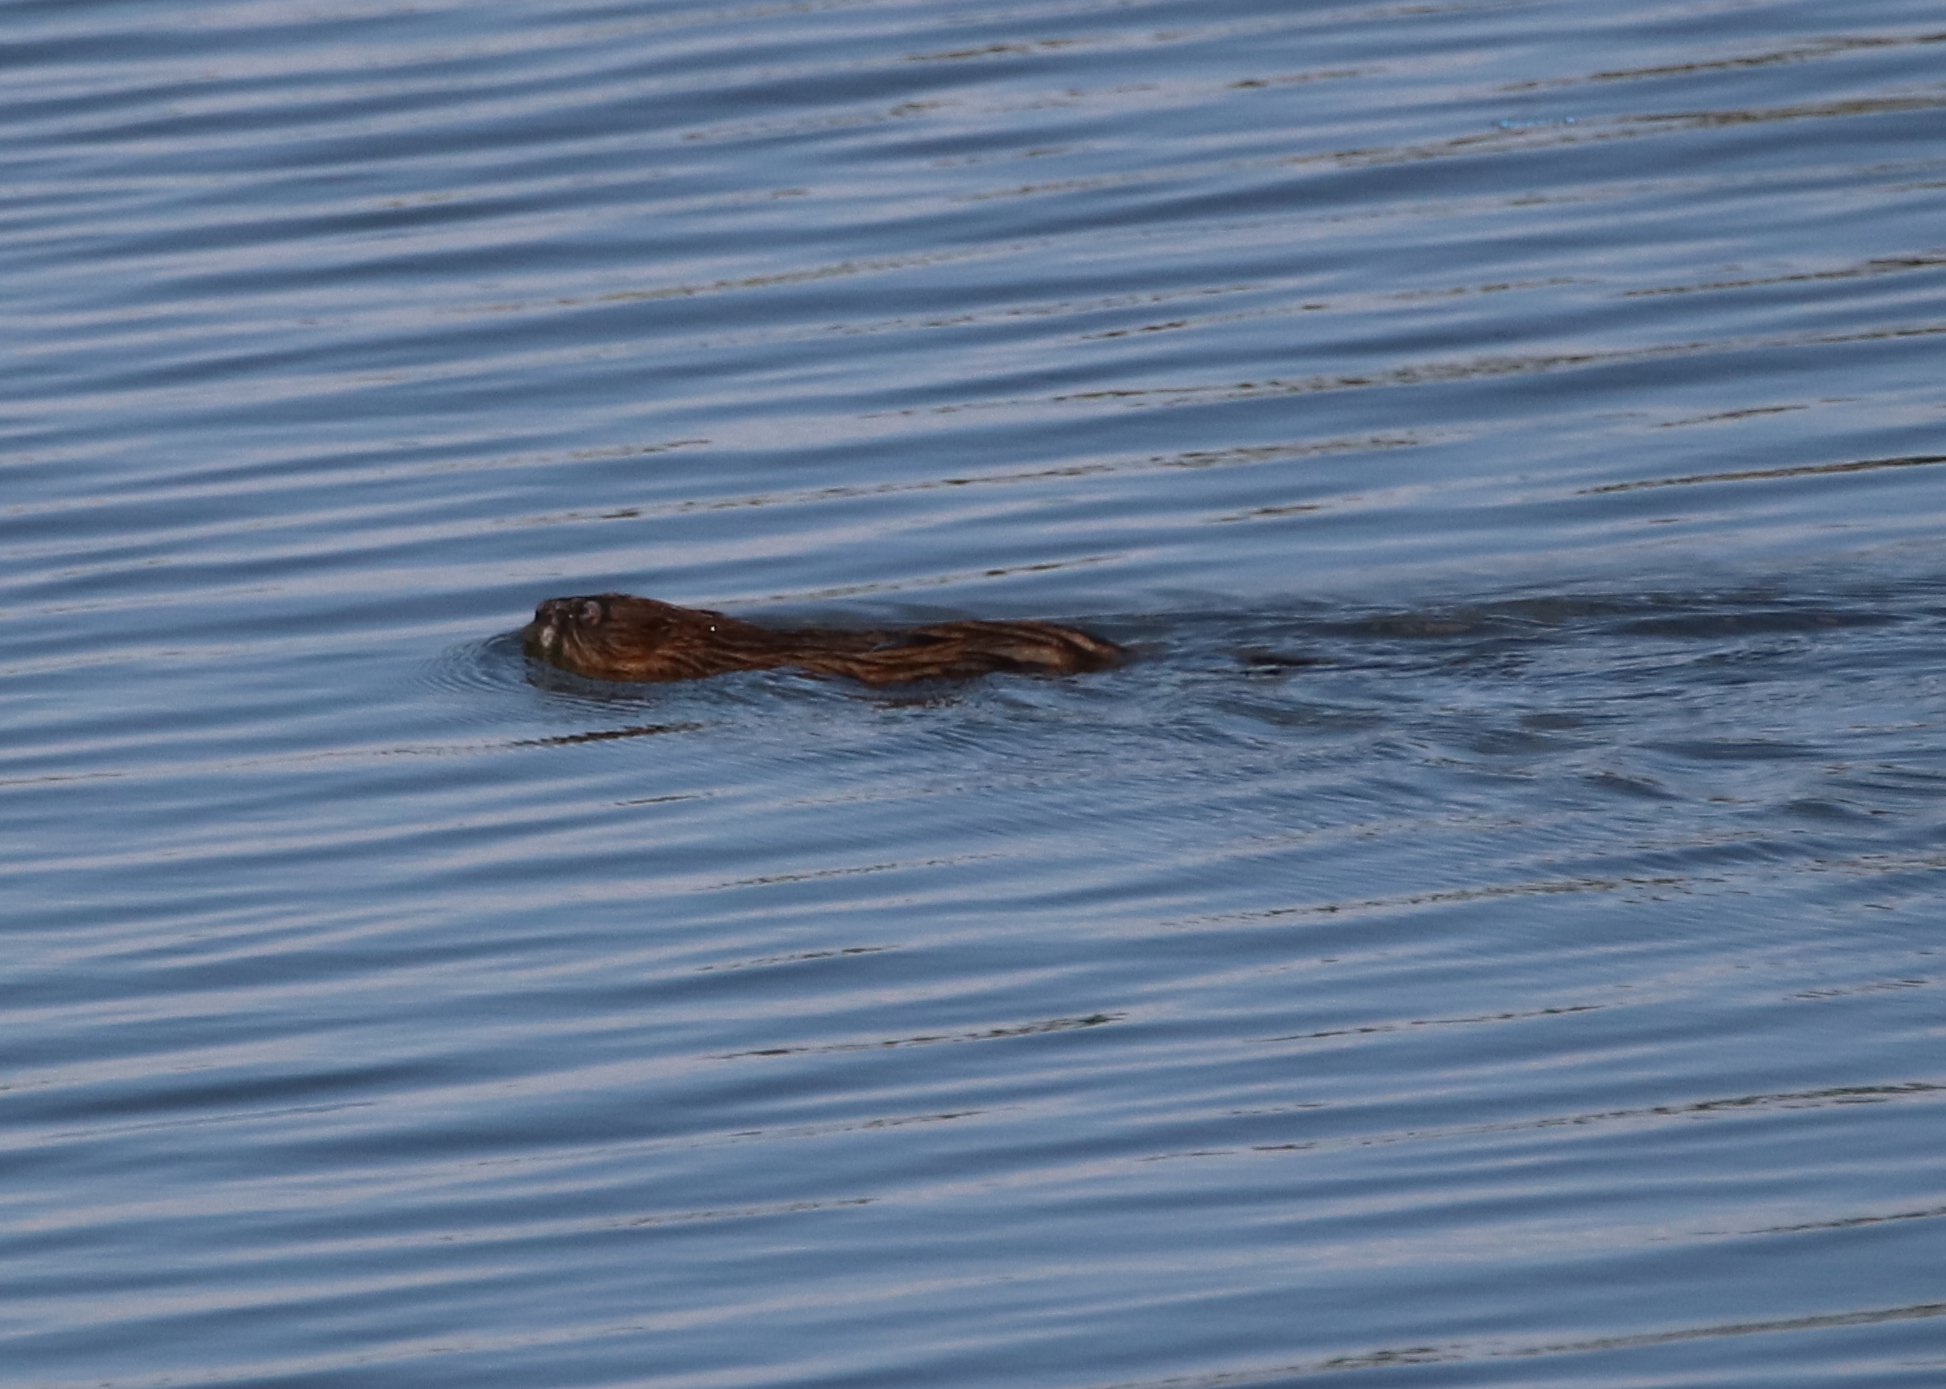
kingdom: Animalia
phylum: Chordata
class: Mammalia
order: Rodentia
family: Cricetidae
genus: Ondatra
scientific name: Ondatra zibethicus
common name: Muskrat
